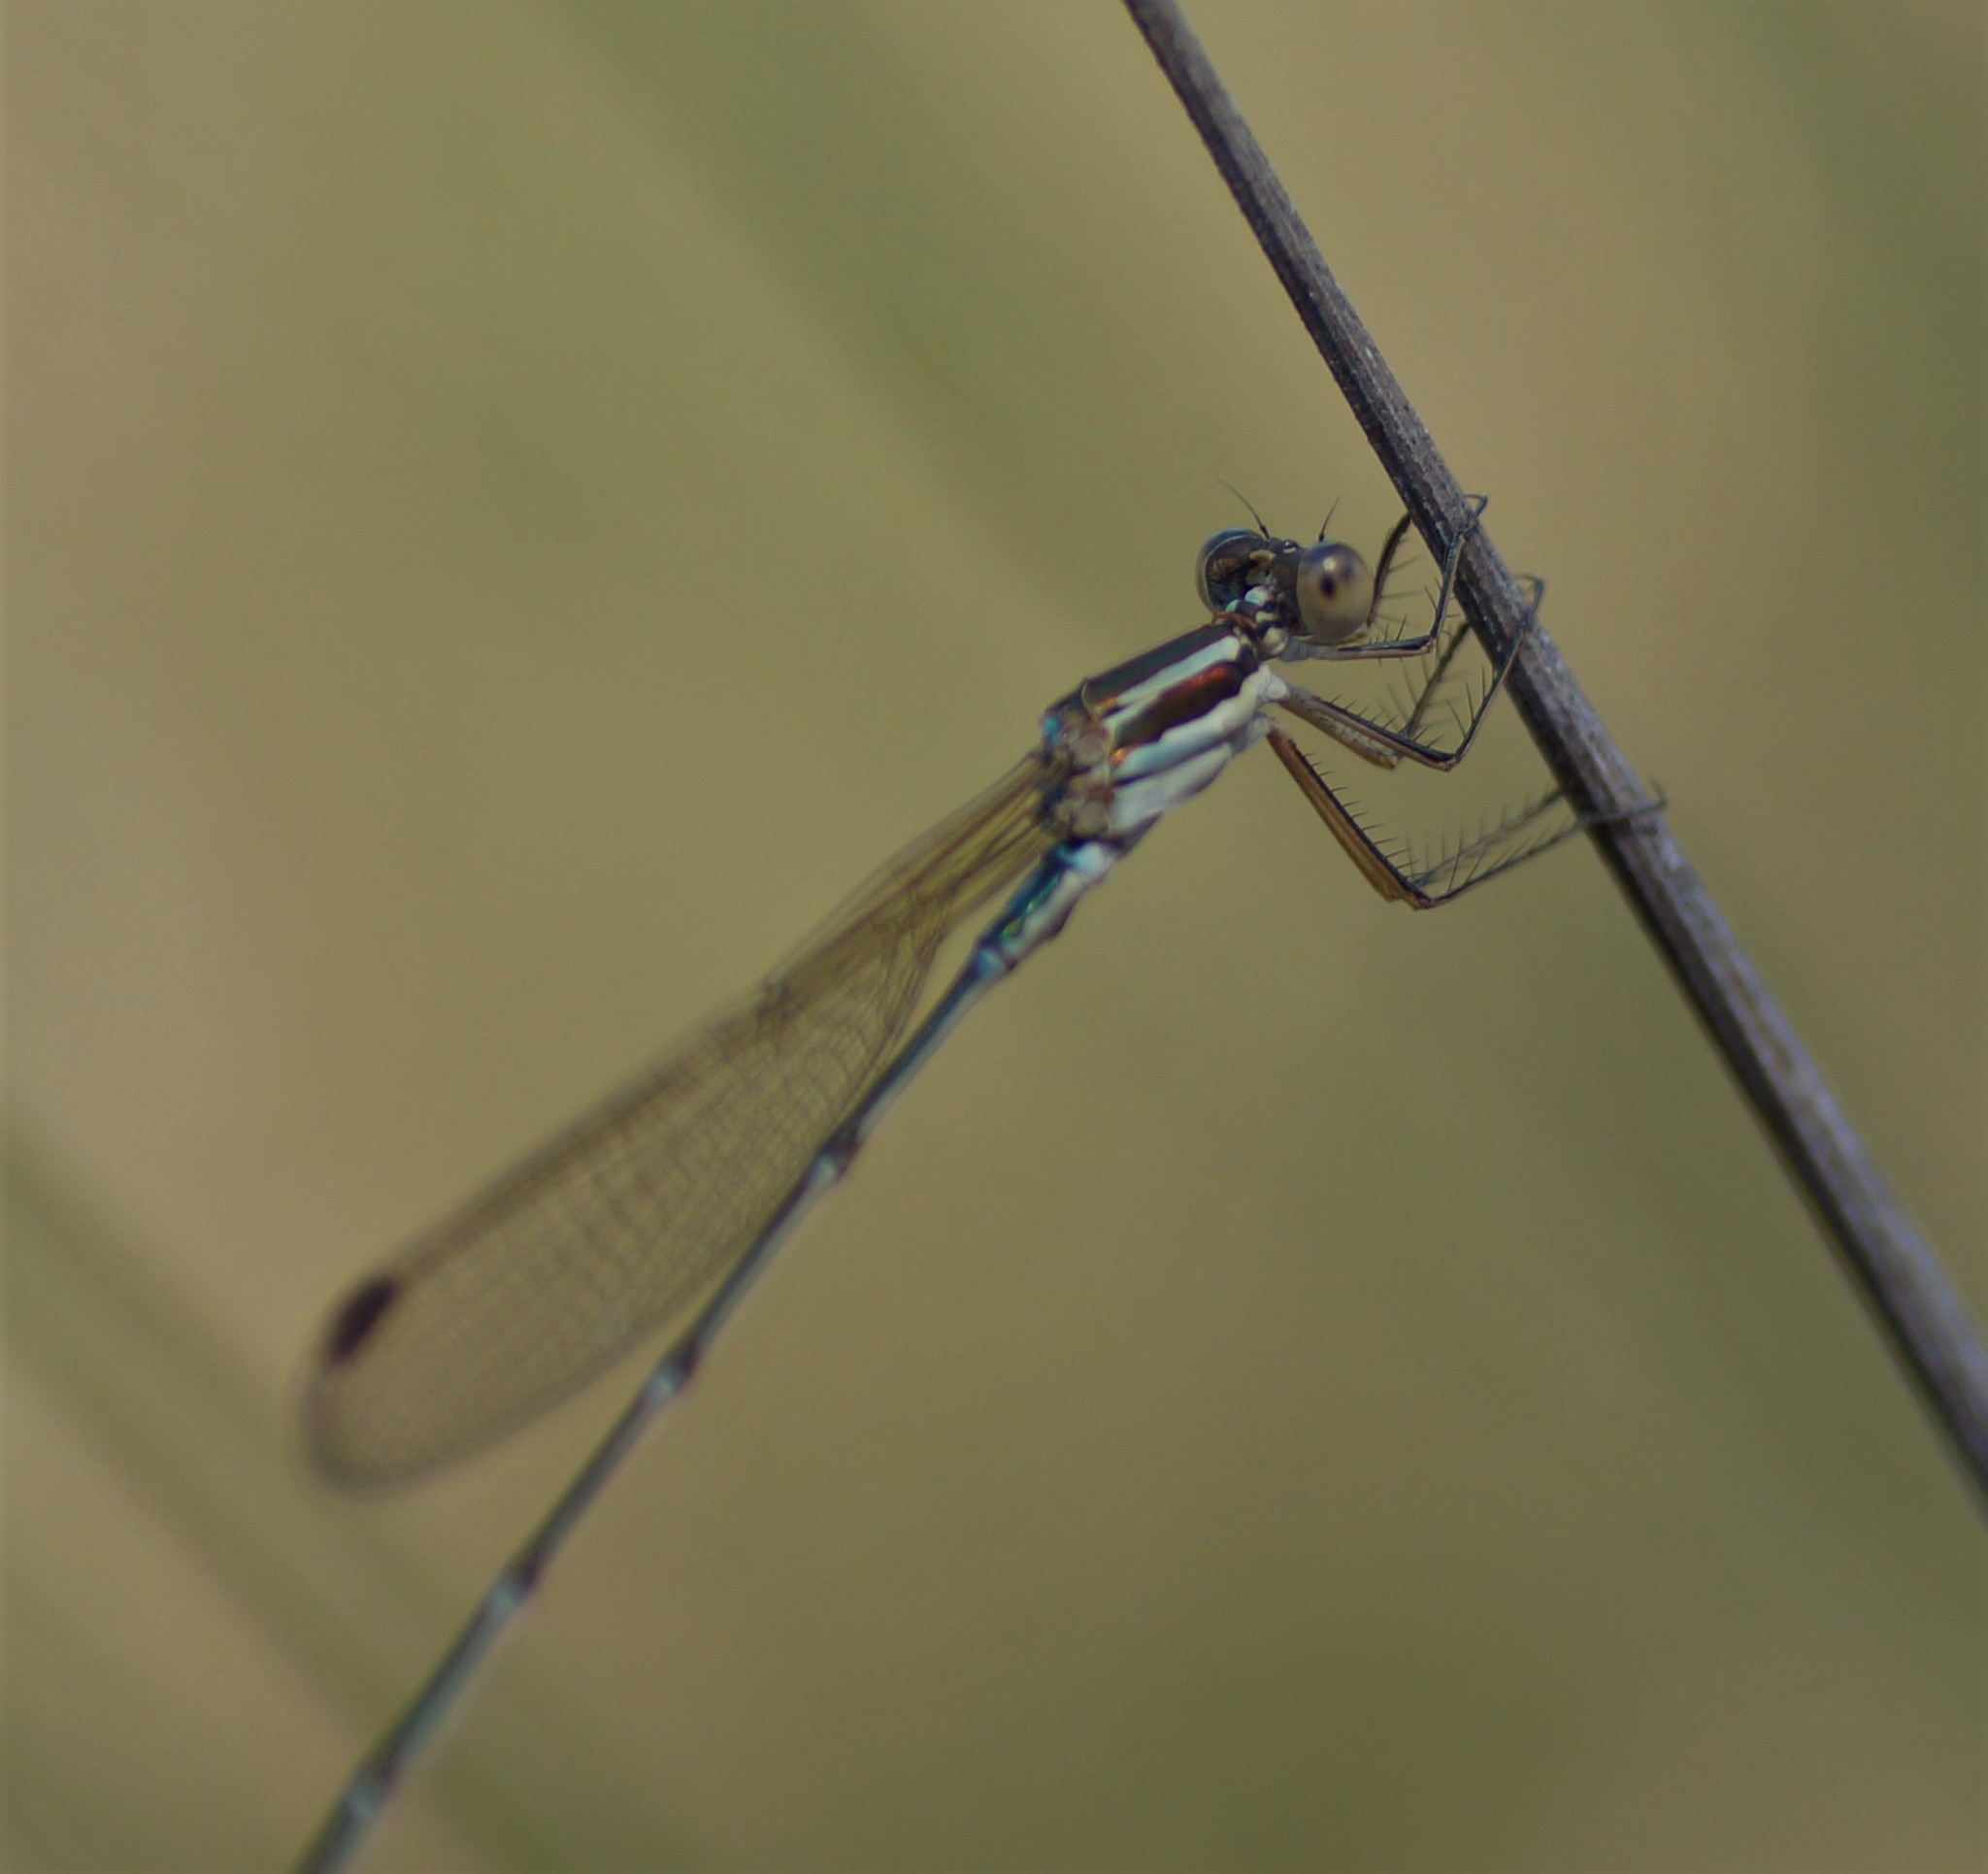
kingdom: Animalia
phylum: Arthropoda
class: Insecta
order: Odonata
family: Lestidae
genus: Austrolestes
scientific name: Austrolestes analis
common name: Slender ringtail
